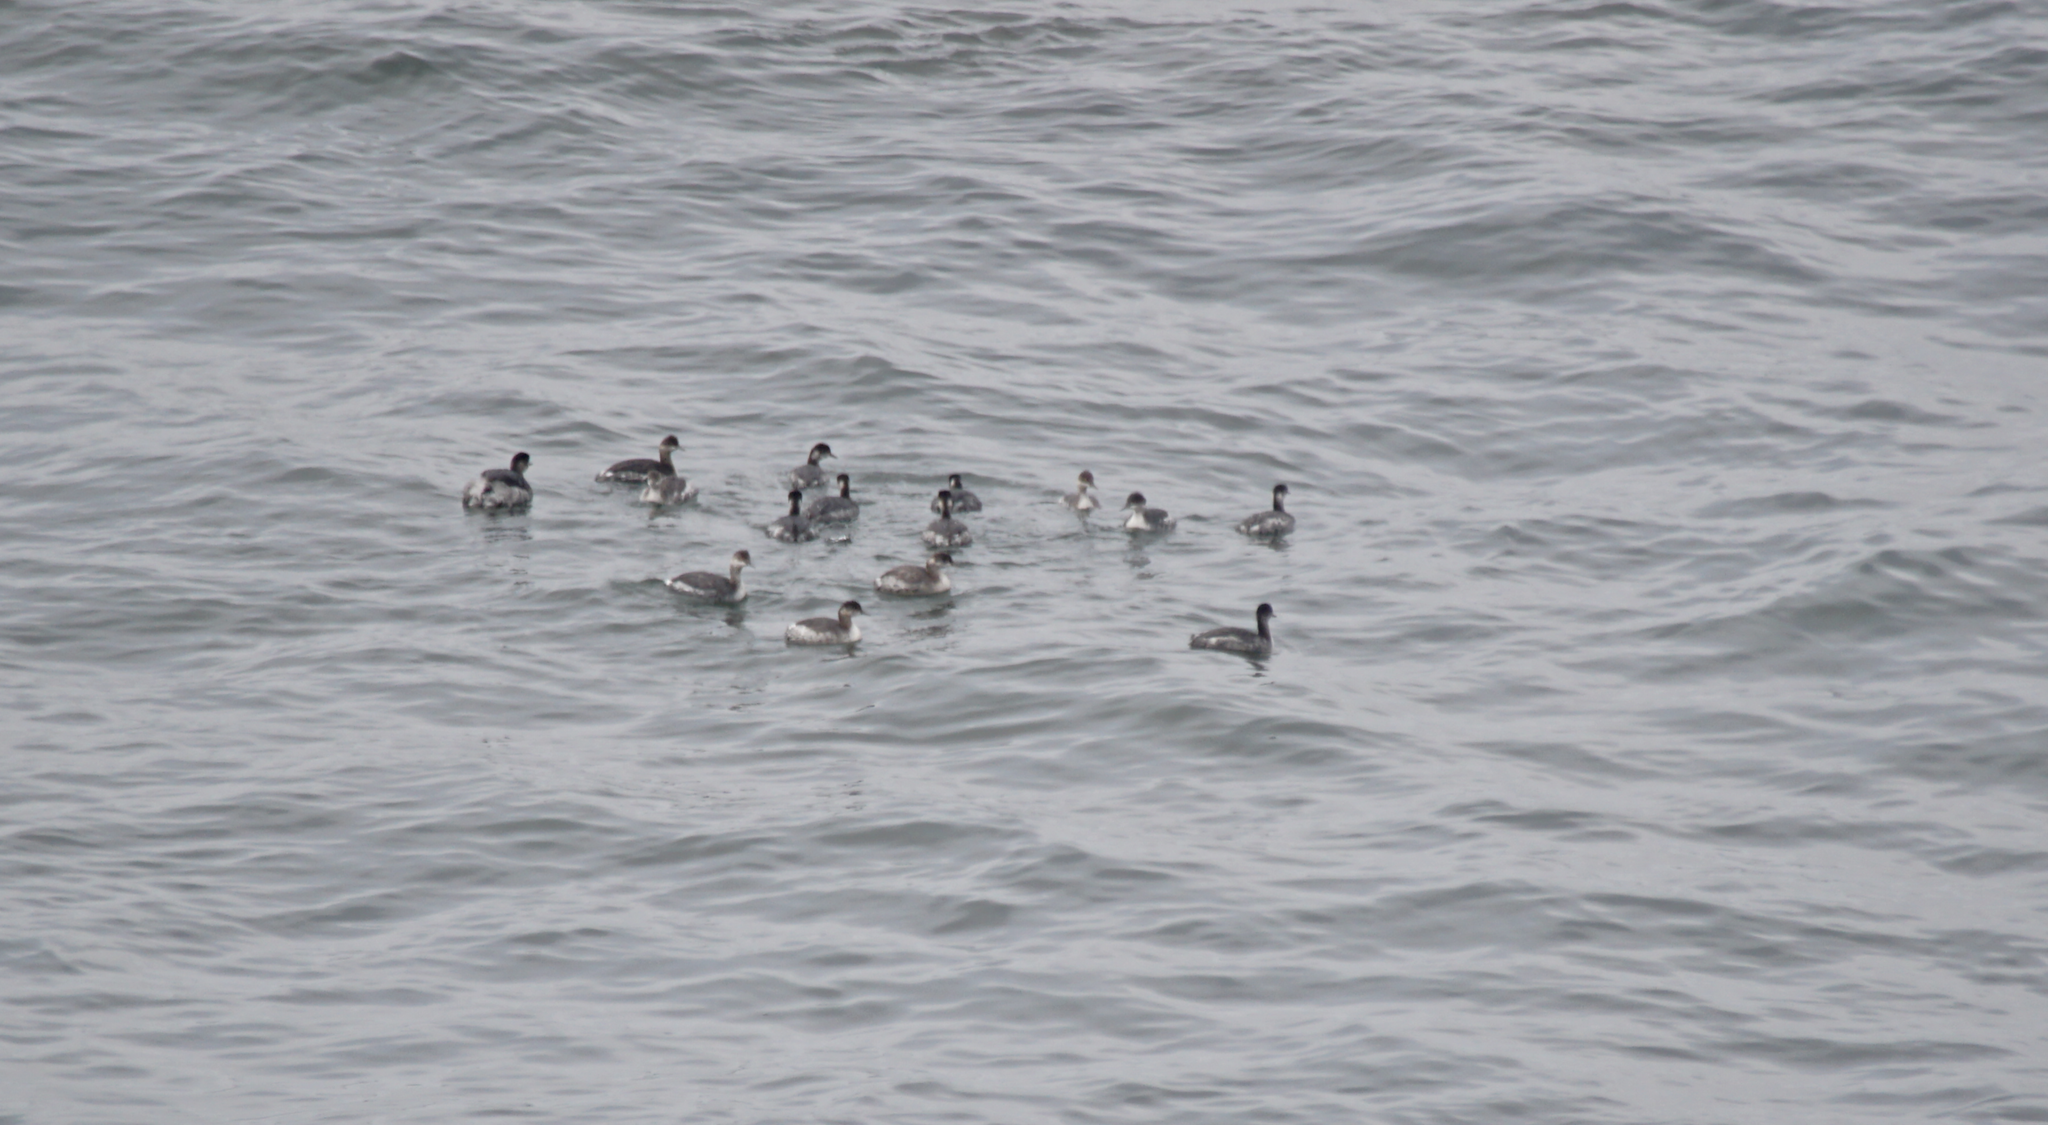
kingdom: Animalia
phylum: Chordata
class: Aves
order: Podicipediformes
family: Podicipedidae
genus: Podiceps
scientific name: Podiceps nigricollis
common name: Black-necked grebe
